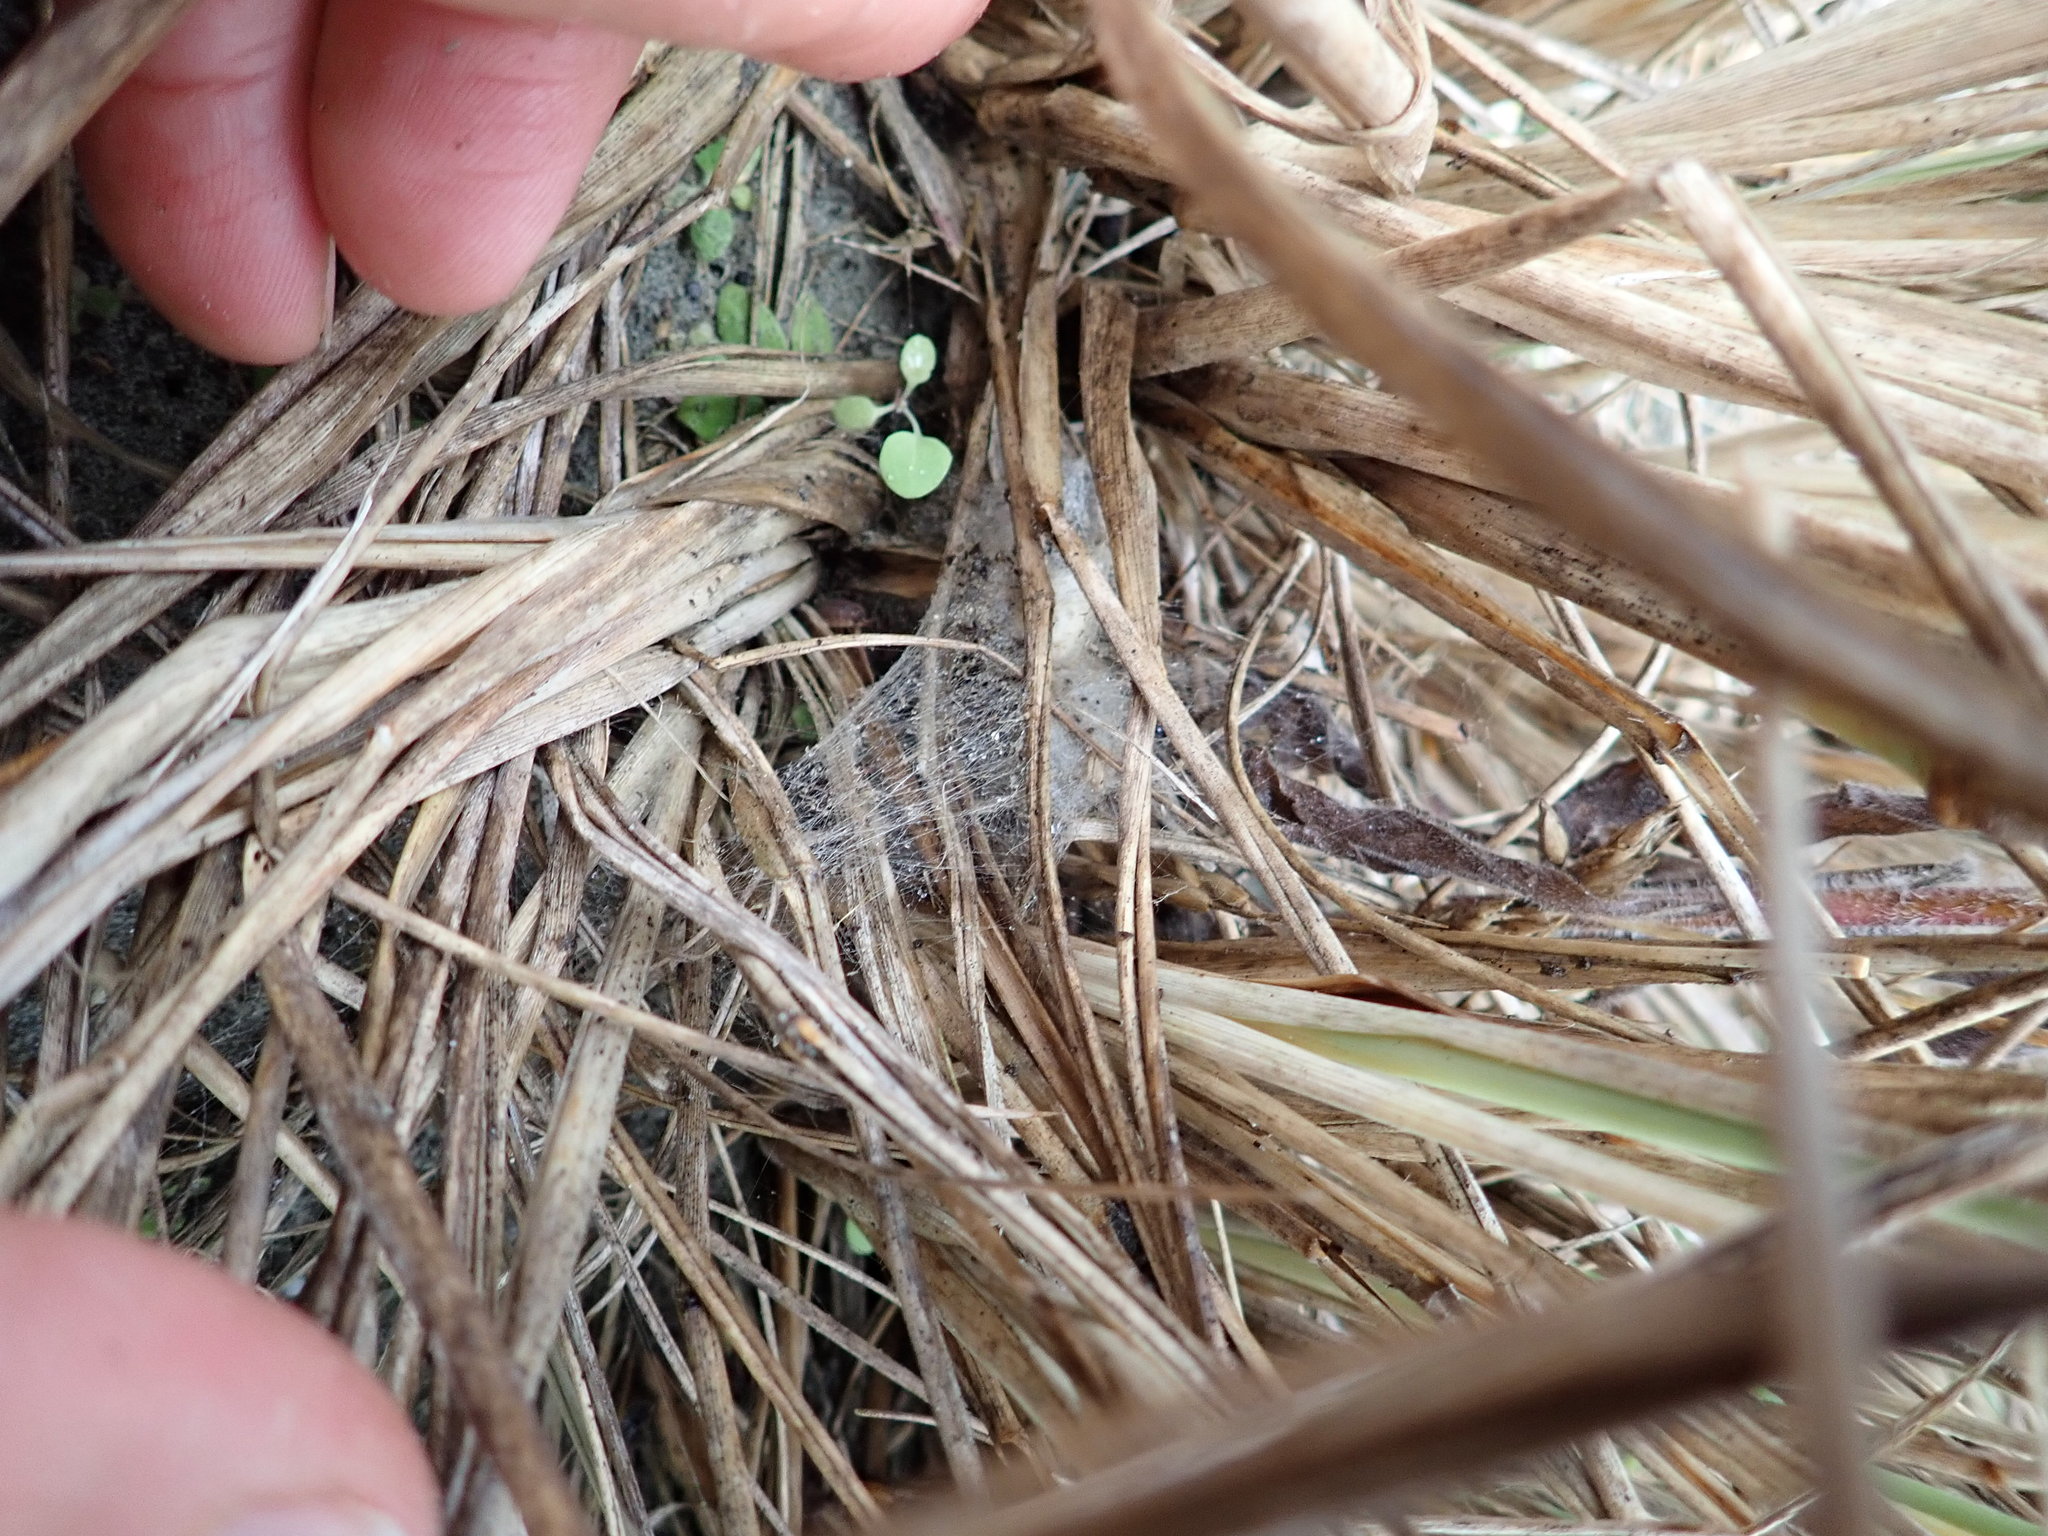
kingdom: Animalia
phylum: Arthropoda
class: Arachnida
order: Araneae
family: Theridiidae
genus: Latrodectus
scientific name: Latrodectus katipo
